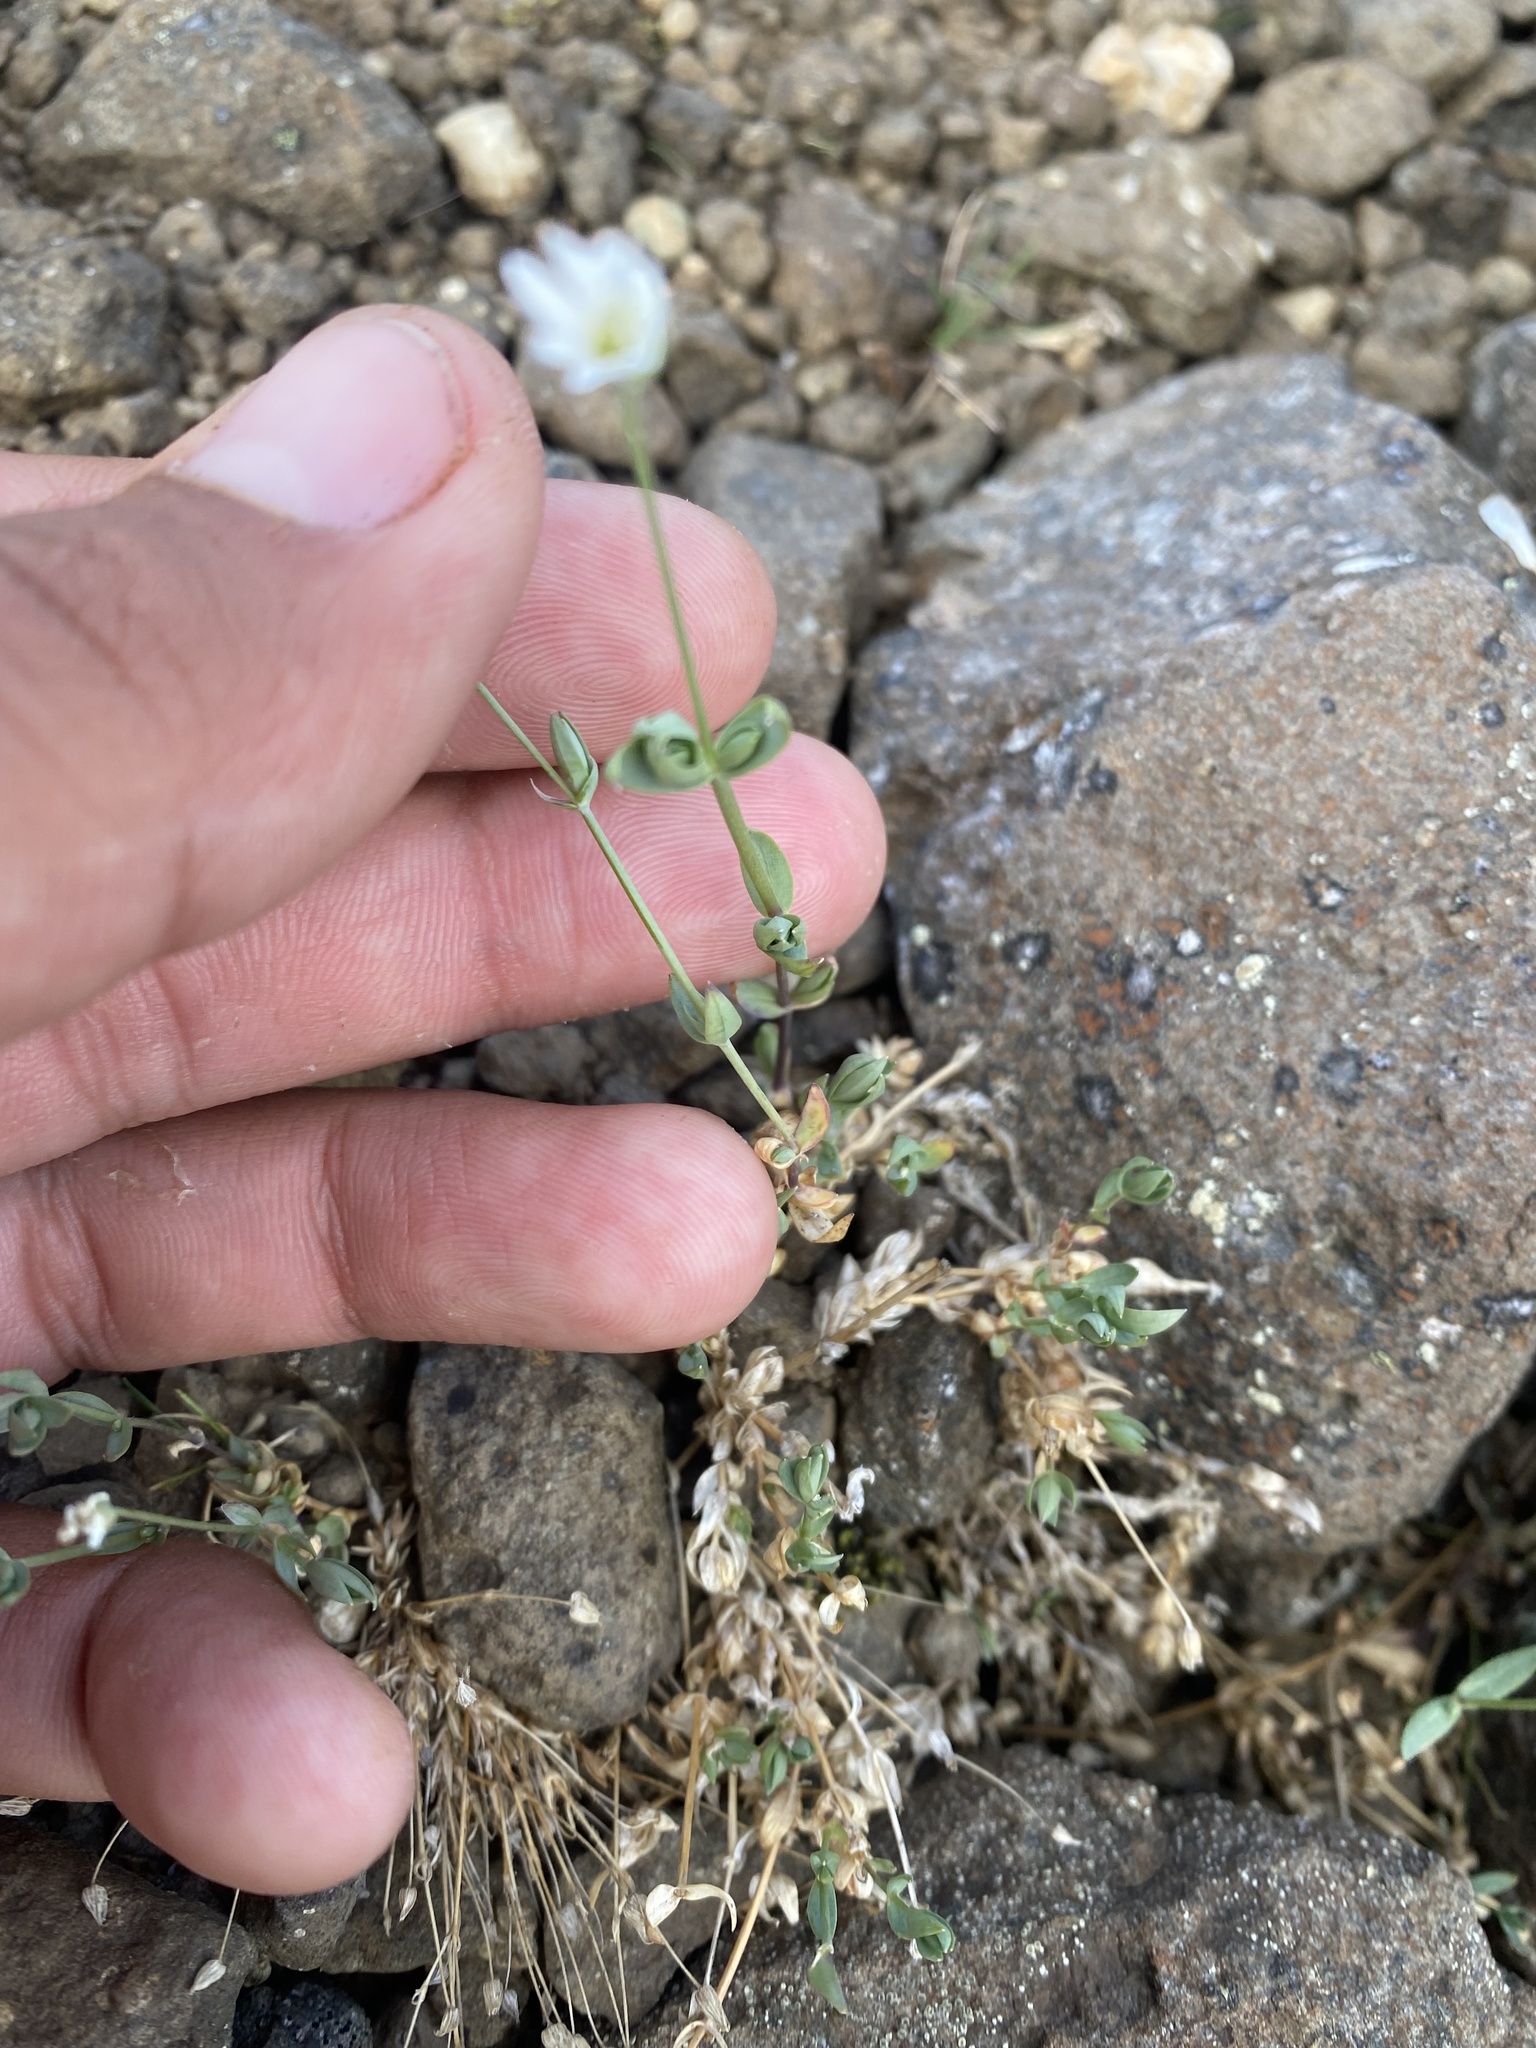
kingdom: Plantae
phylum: Tracheophyta
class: Magnoliopsida
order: Caryophyllales
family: Caryophyllaceae
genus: Stellaria
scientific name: Stellaria longipes
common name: Goldie's starwort
